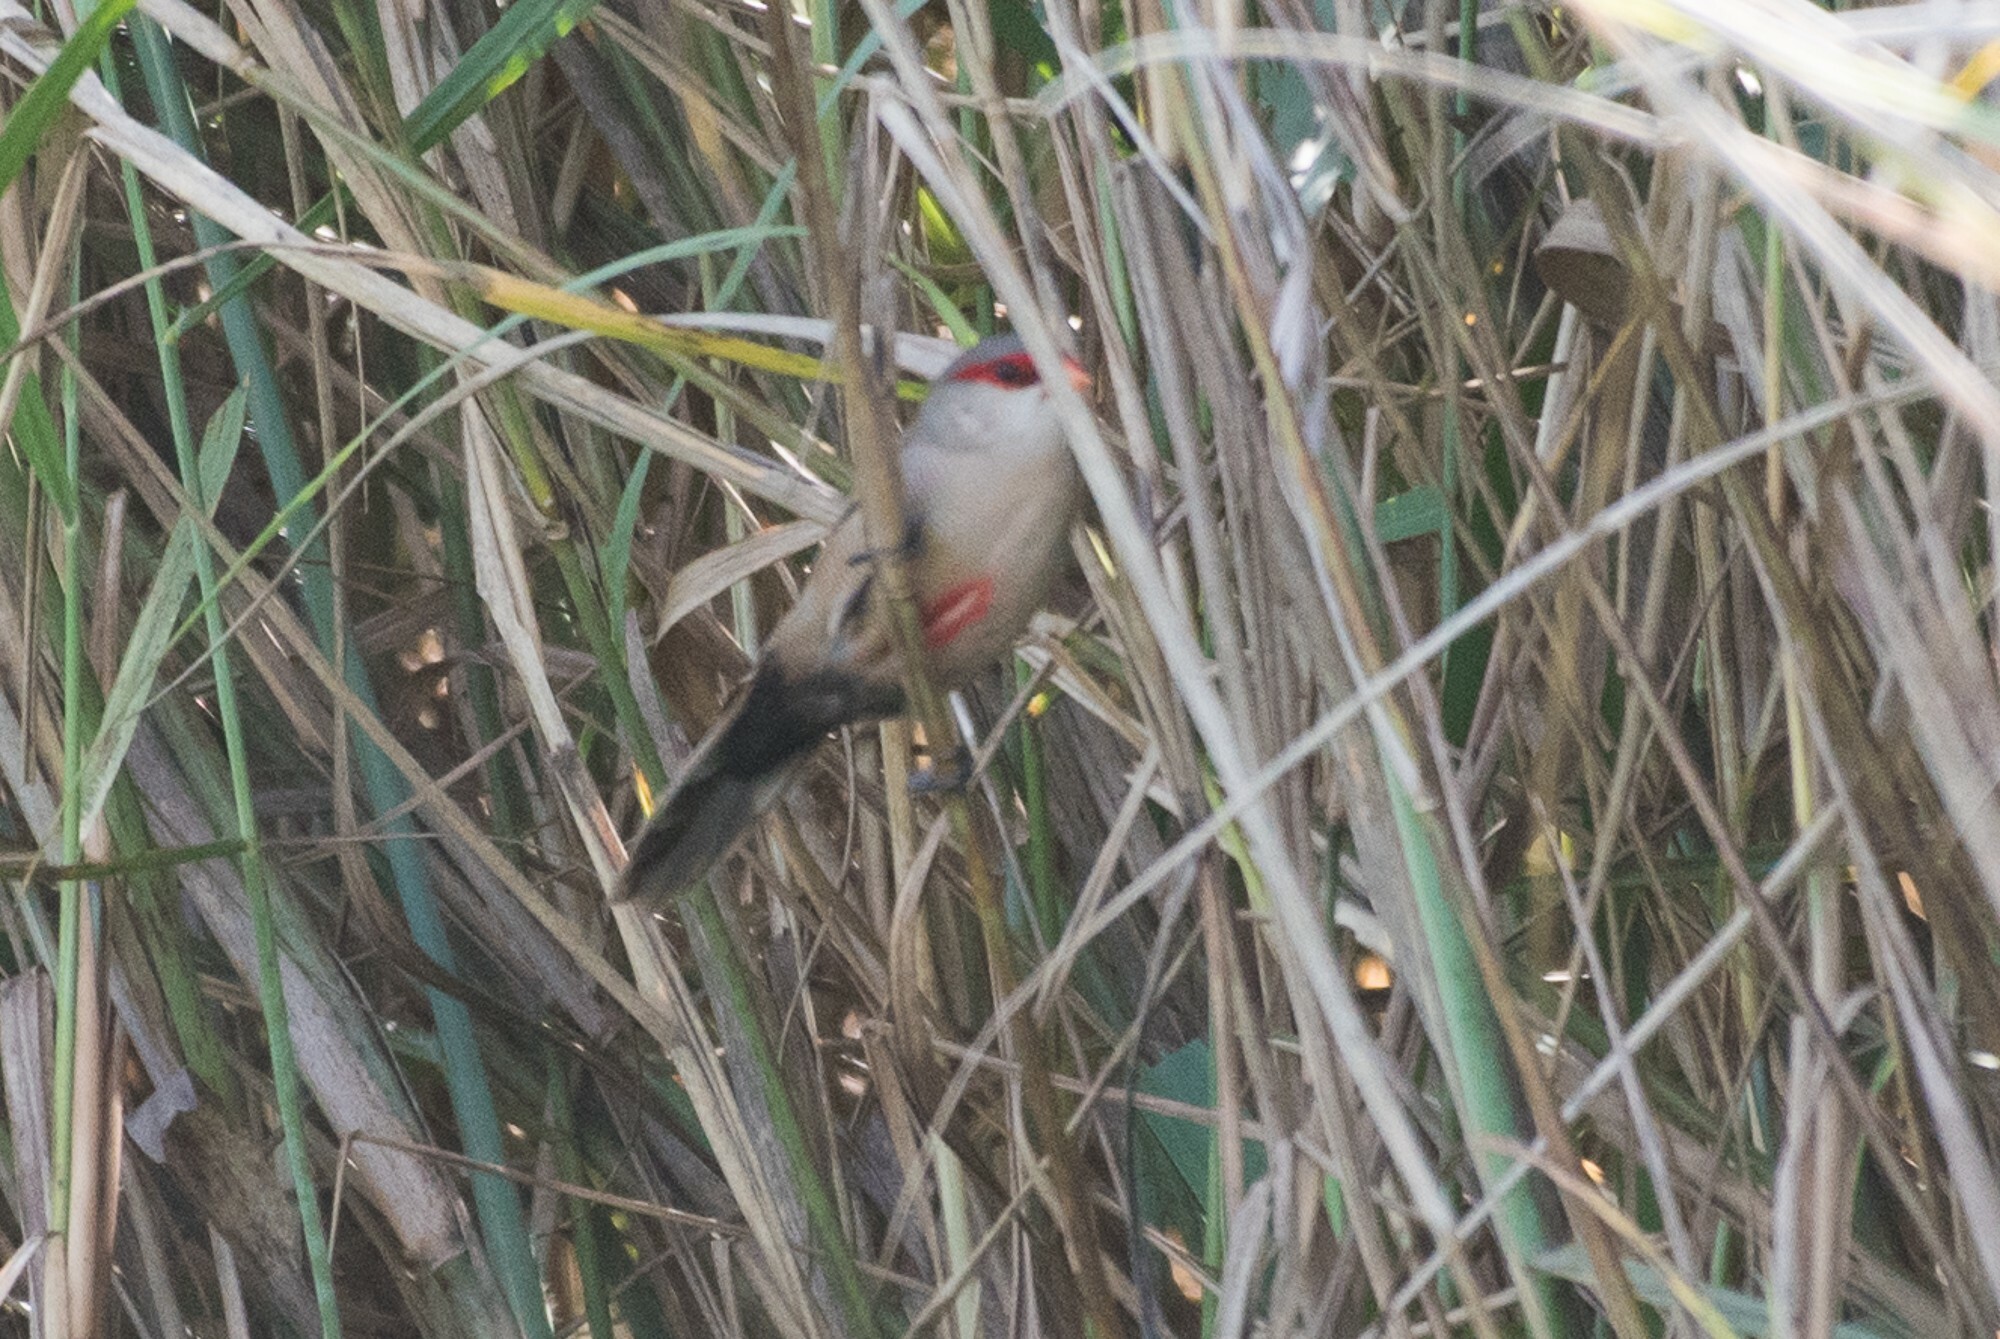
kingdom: Animalia
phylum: Chordata
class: Aves
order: Passeriformes
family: Estrildidae
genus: Estrilda
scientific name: Estrilda astrild
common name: Common waxbill
